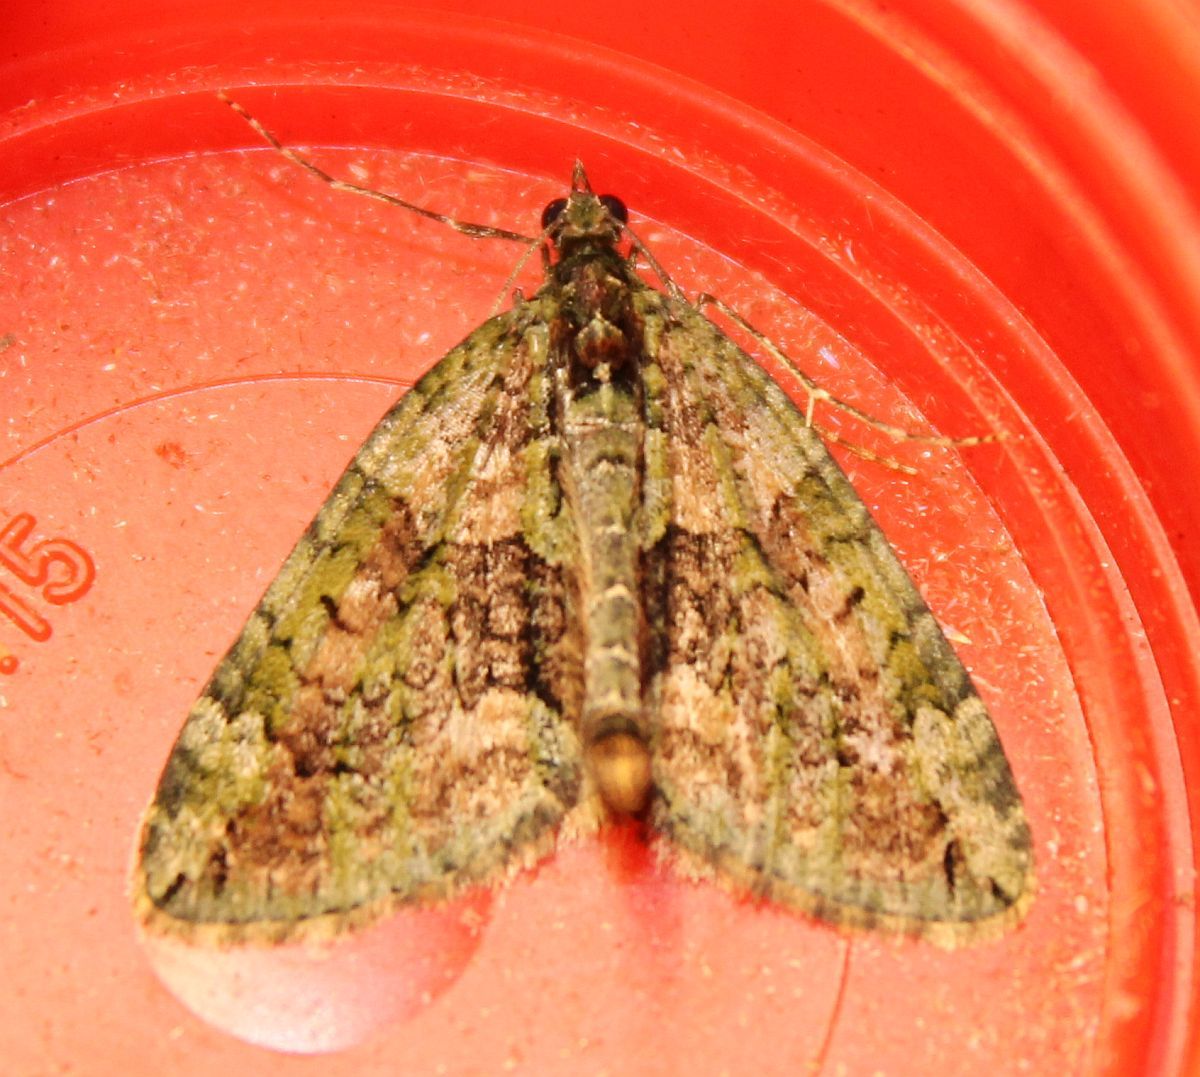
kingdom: Animalia
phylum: Arthropoda
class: Insecta
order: Lepidoptera
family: Geometridae
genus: Chloroclysta
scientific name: Chloroclysta siterata
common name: Red-green carpet
